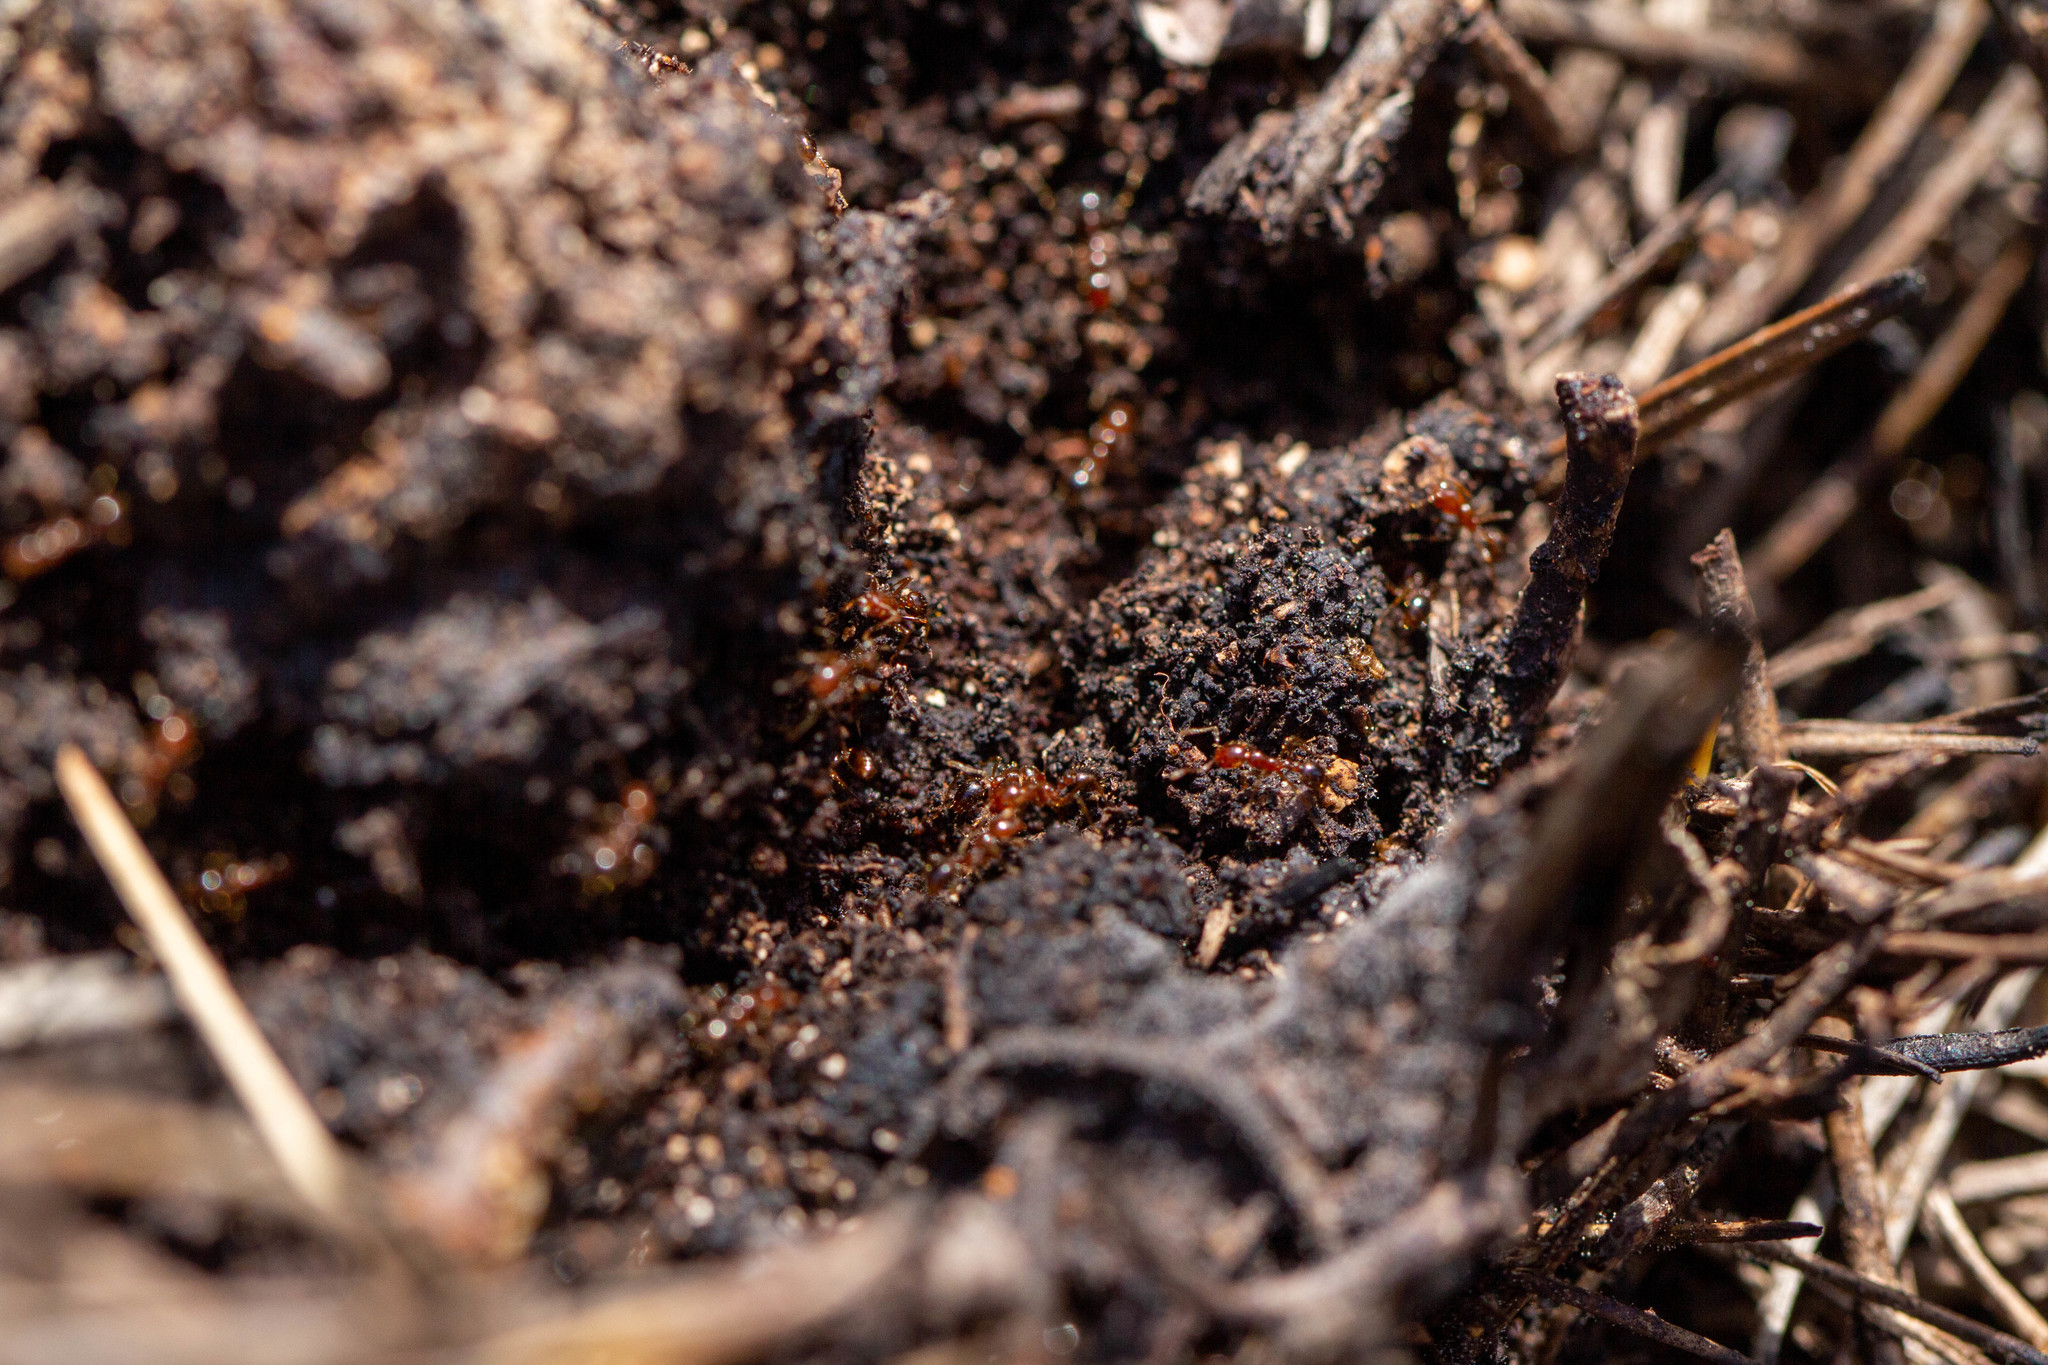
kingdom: Animalia
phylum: Arthropoda
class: Insecta
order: Hymenoptera
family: Formicidae
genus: Solenopsis
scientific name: Solenopsis invicta
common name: Red imported fire ant
